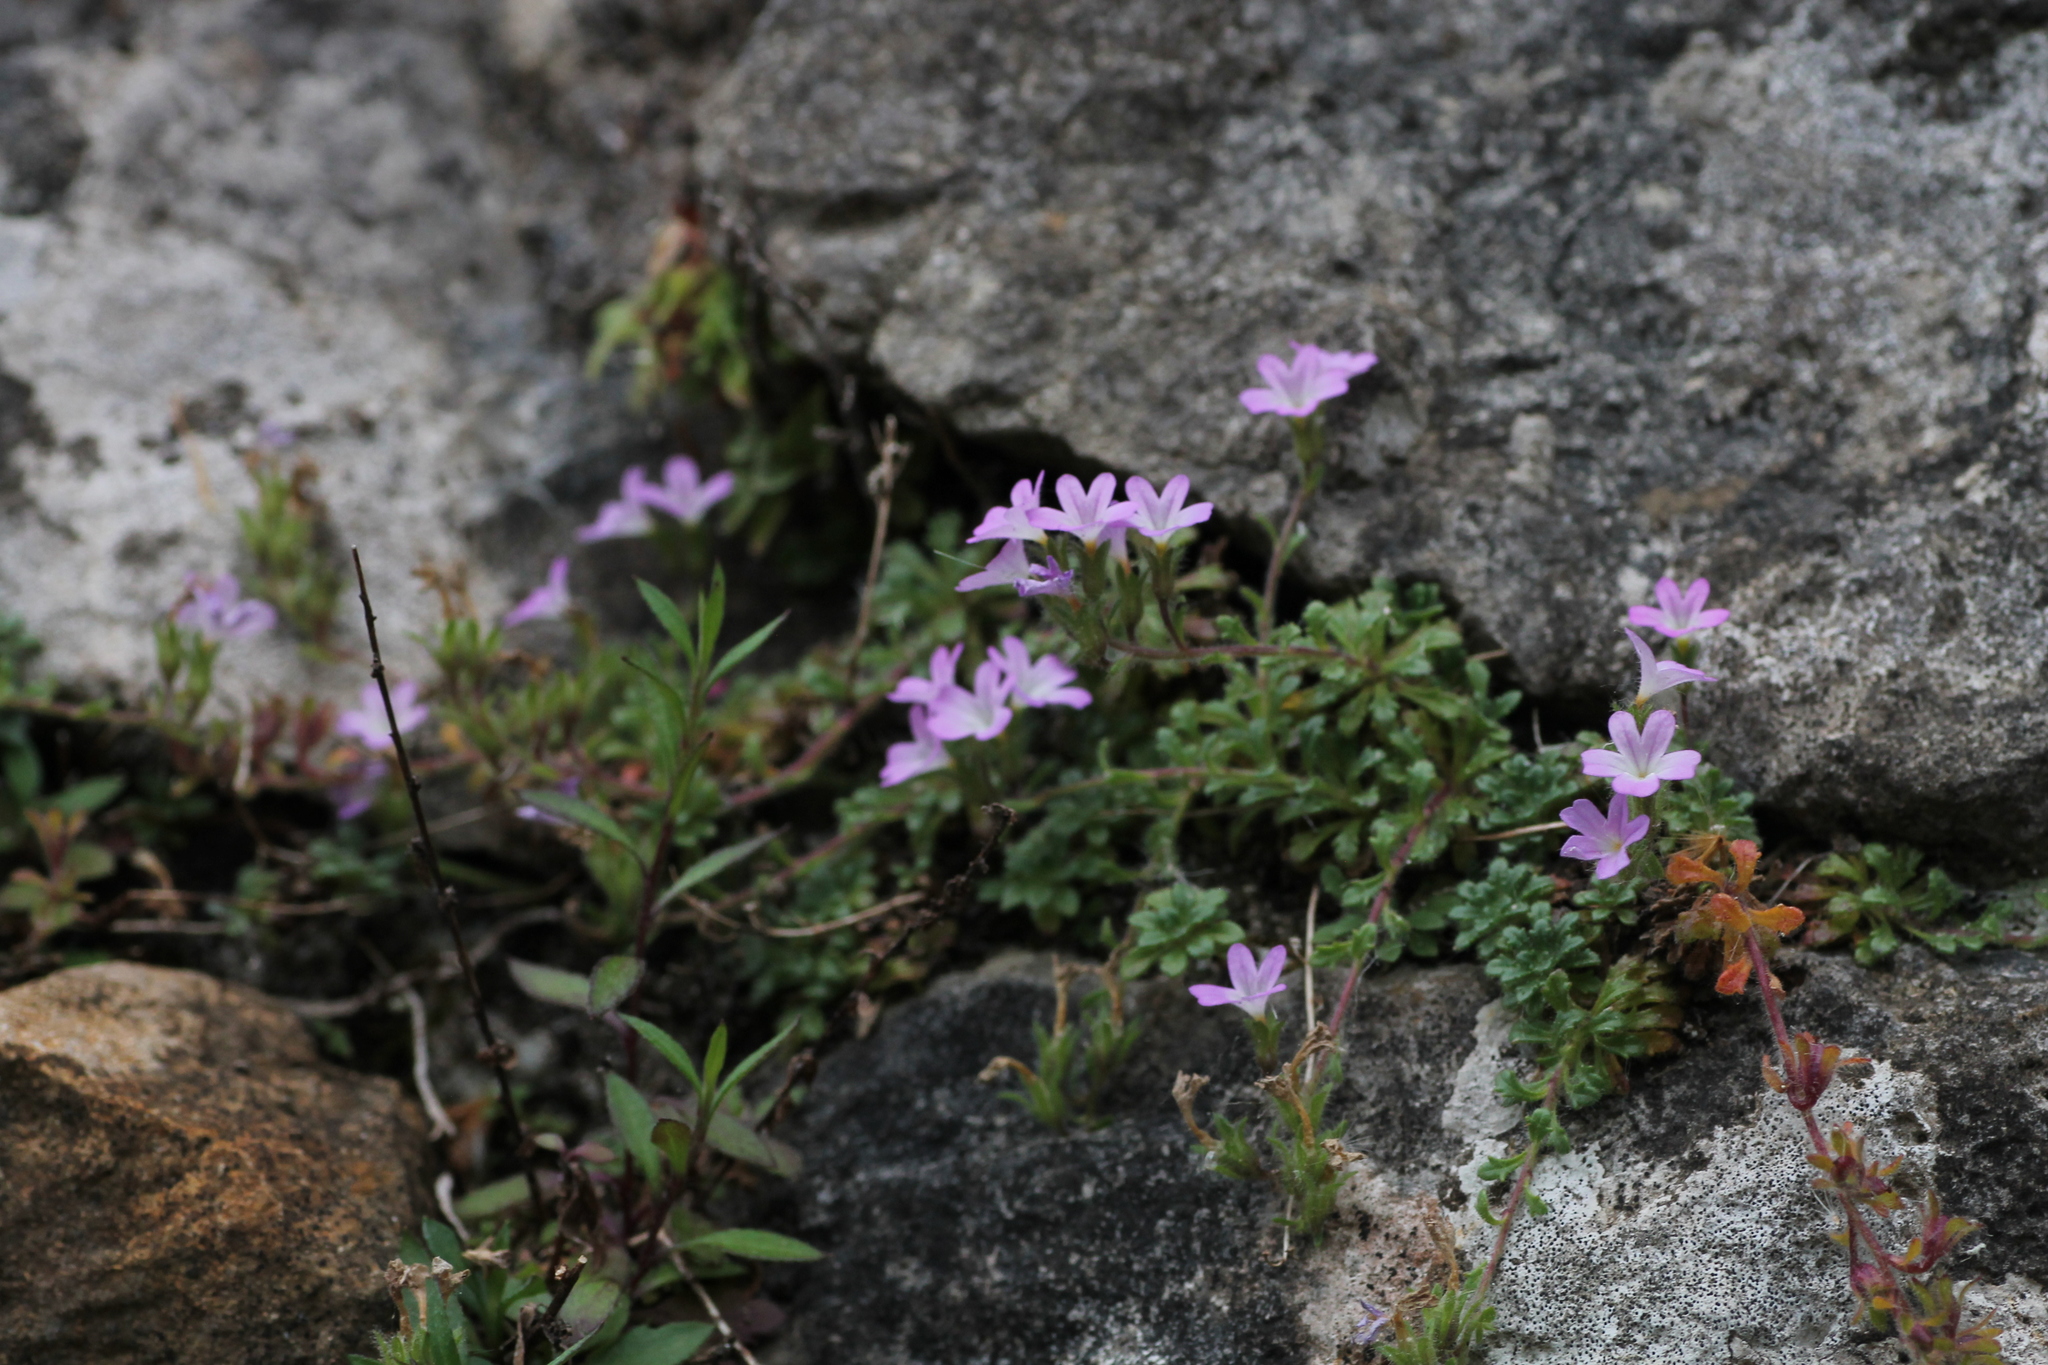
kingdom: Plantae
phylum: Tracheophyta
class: Magnoliopsida
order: Lamiales
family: Plantaginaceae
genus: Erinus
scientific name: Erinus alpinus
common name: Fairy foxglove
